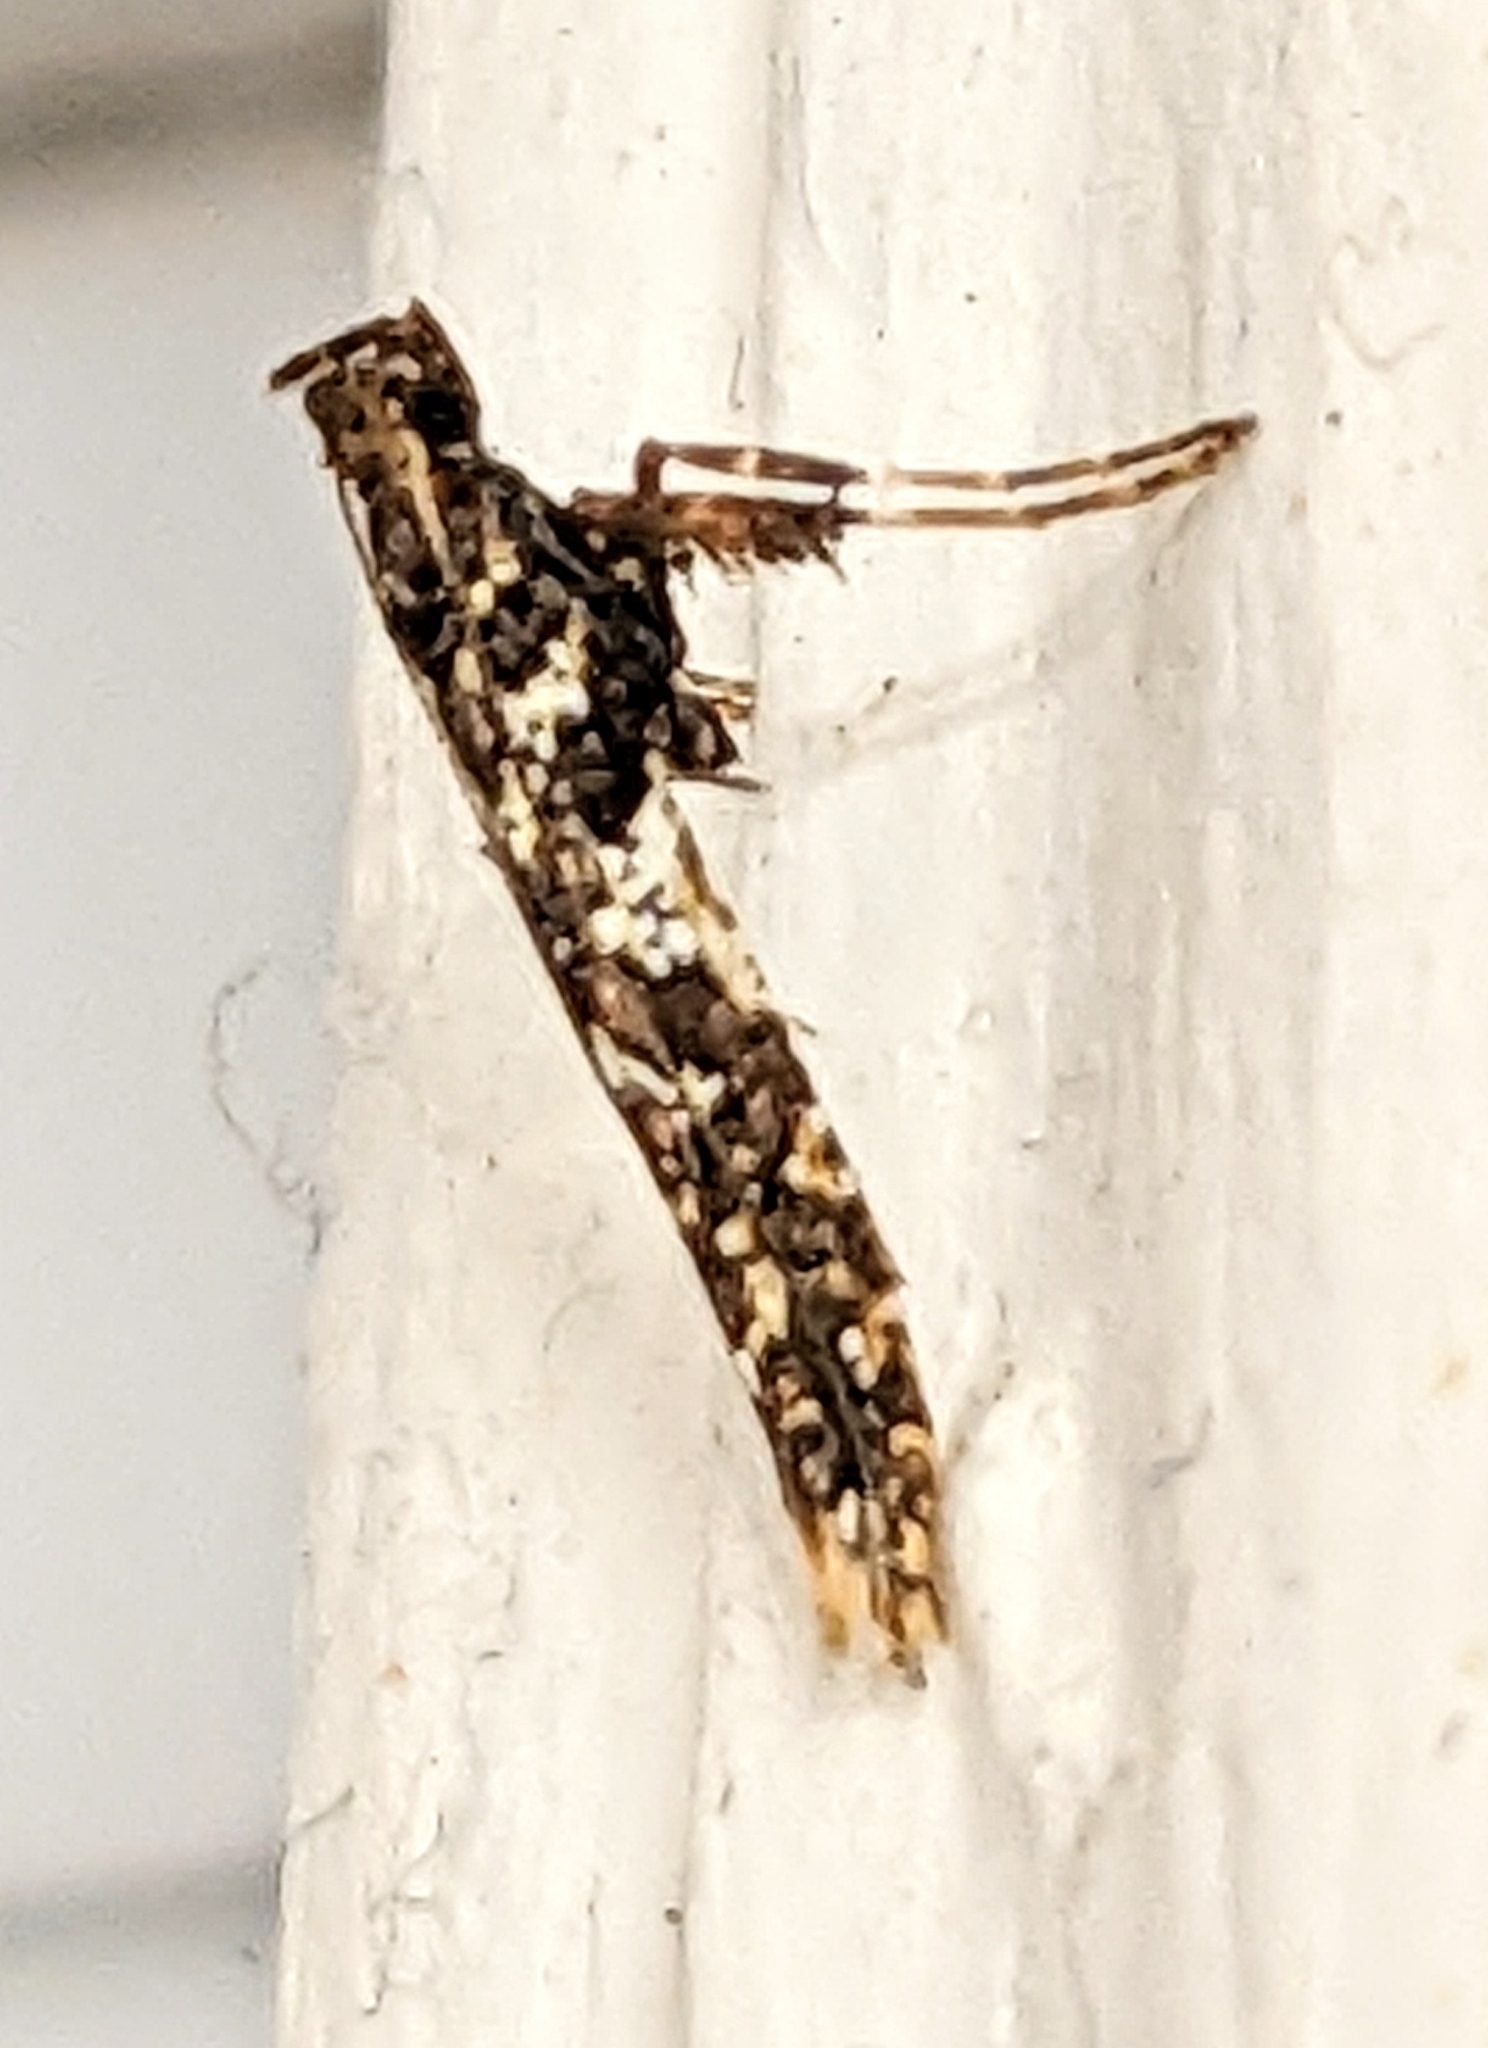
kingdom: Animalia
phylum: Arthropoda
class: Insecta
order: Lepidoptera
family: Gracillariidae
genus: Caloptilia
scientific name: Caloptilia serotinella
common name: Cherry leafroller moth
